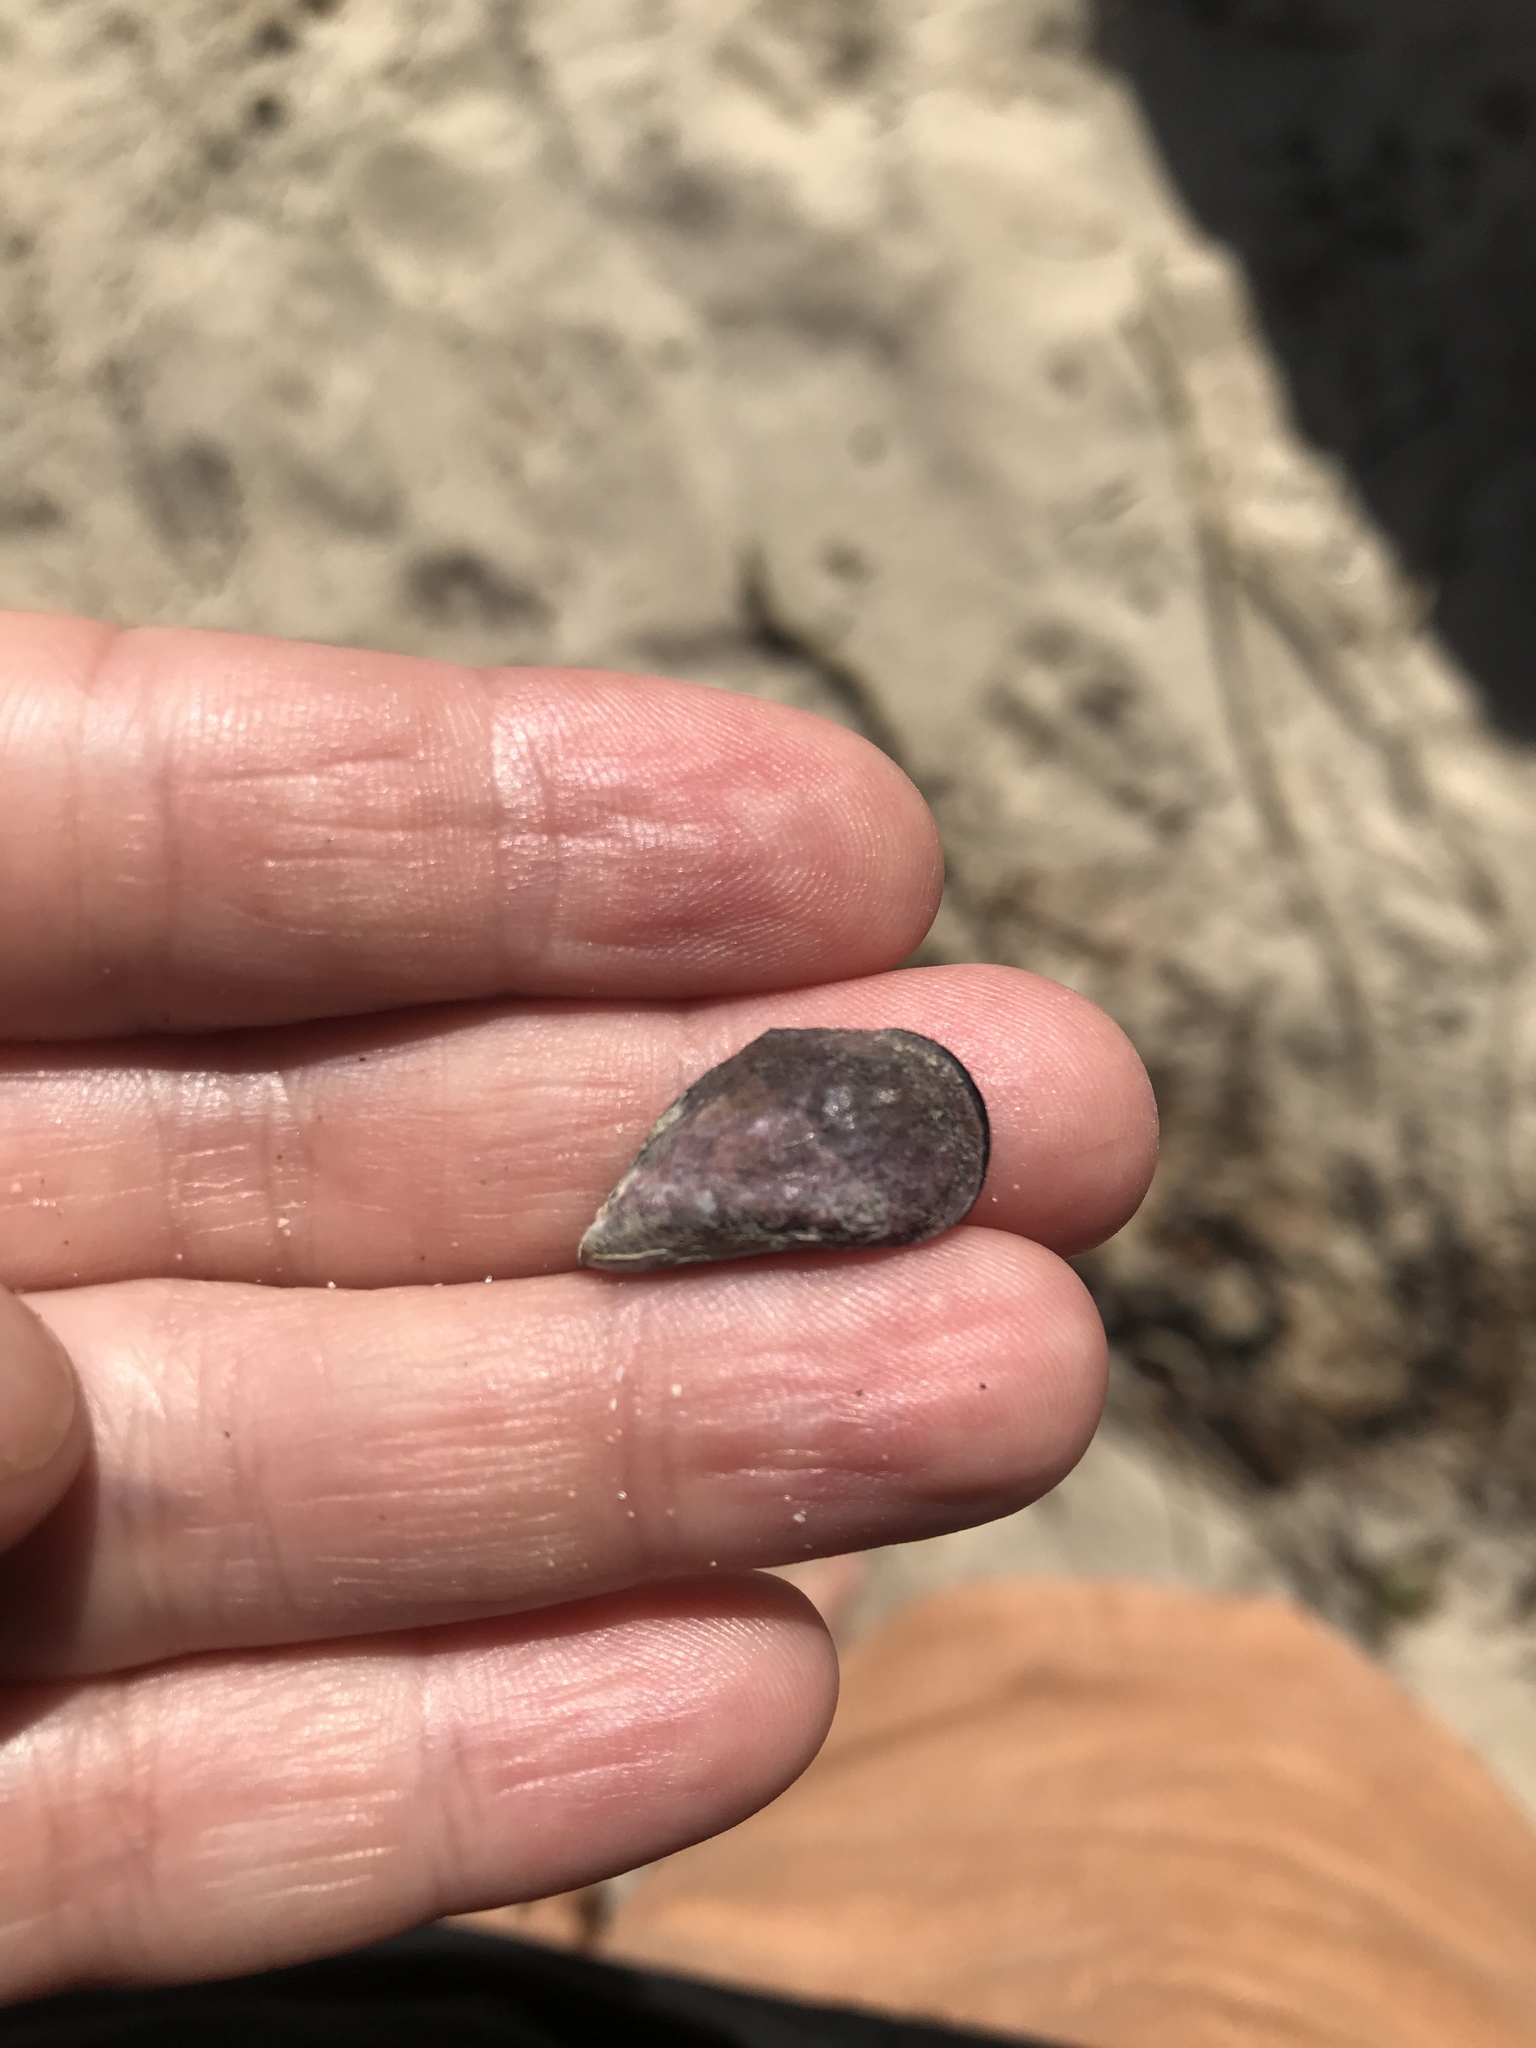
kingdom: Animalia
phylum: Mollusca
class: Bivalvia
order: Mytilida
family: Mytilidae
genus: Mytilus
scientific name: Mytilus planulatus
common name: Australian mussel
